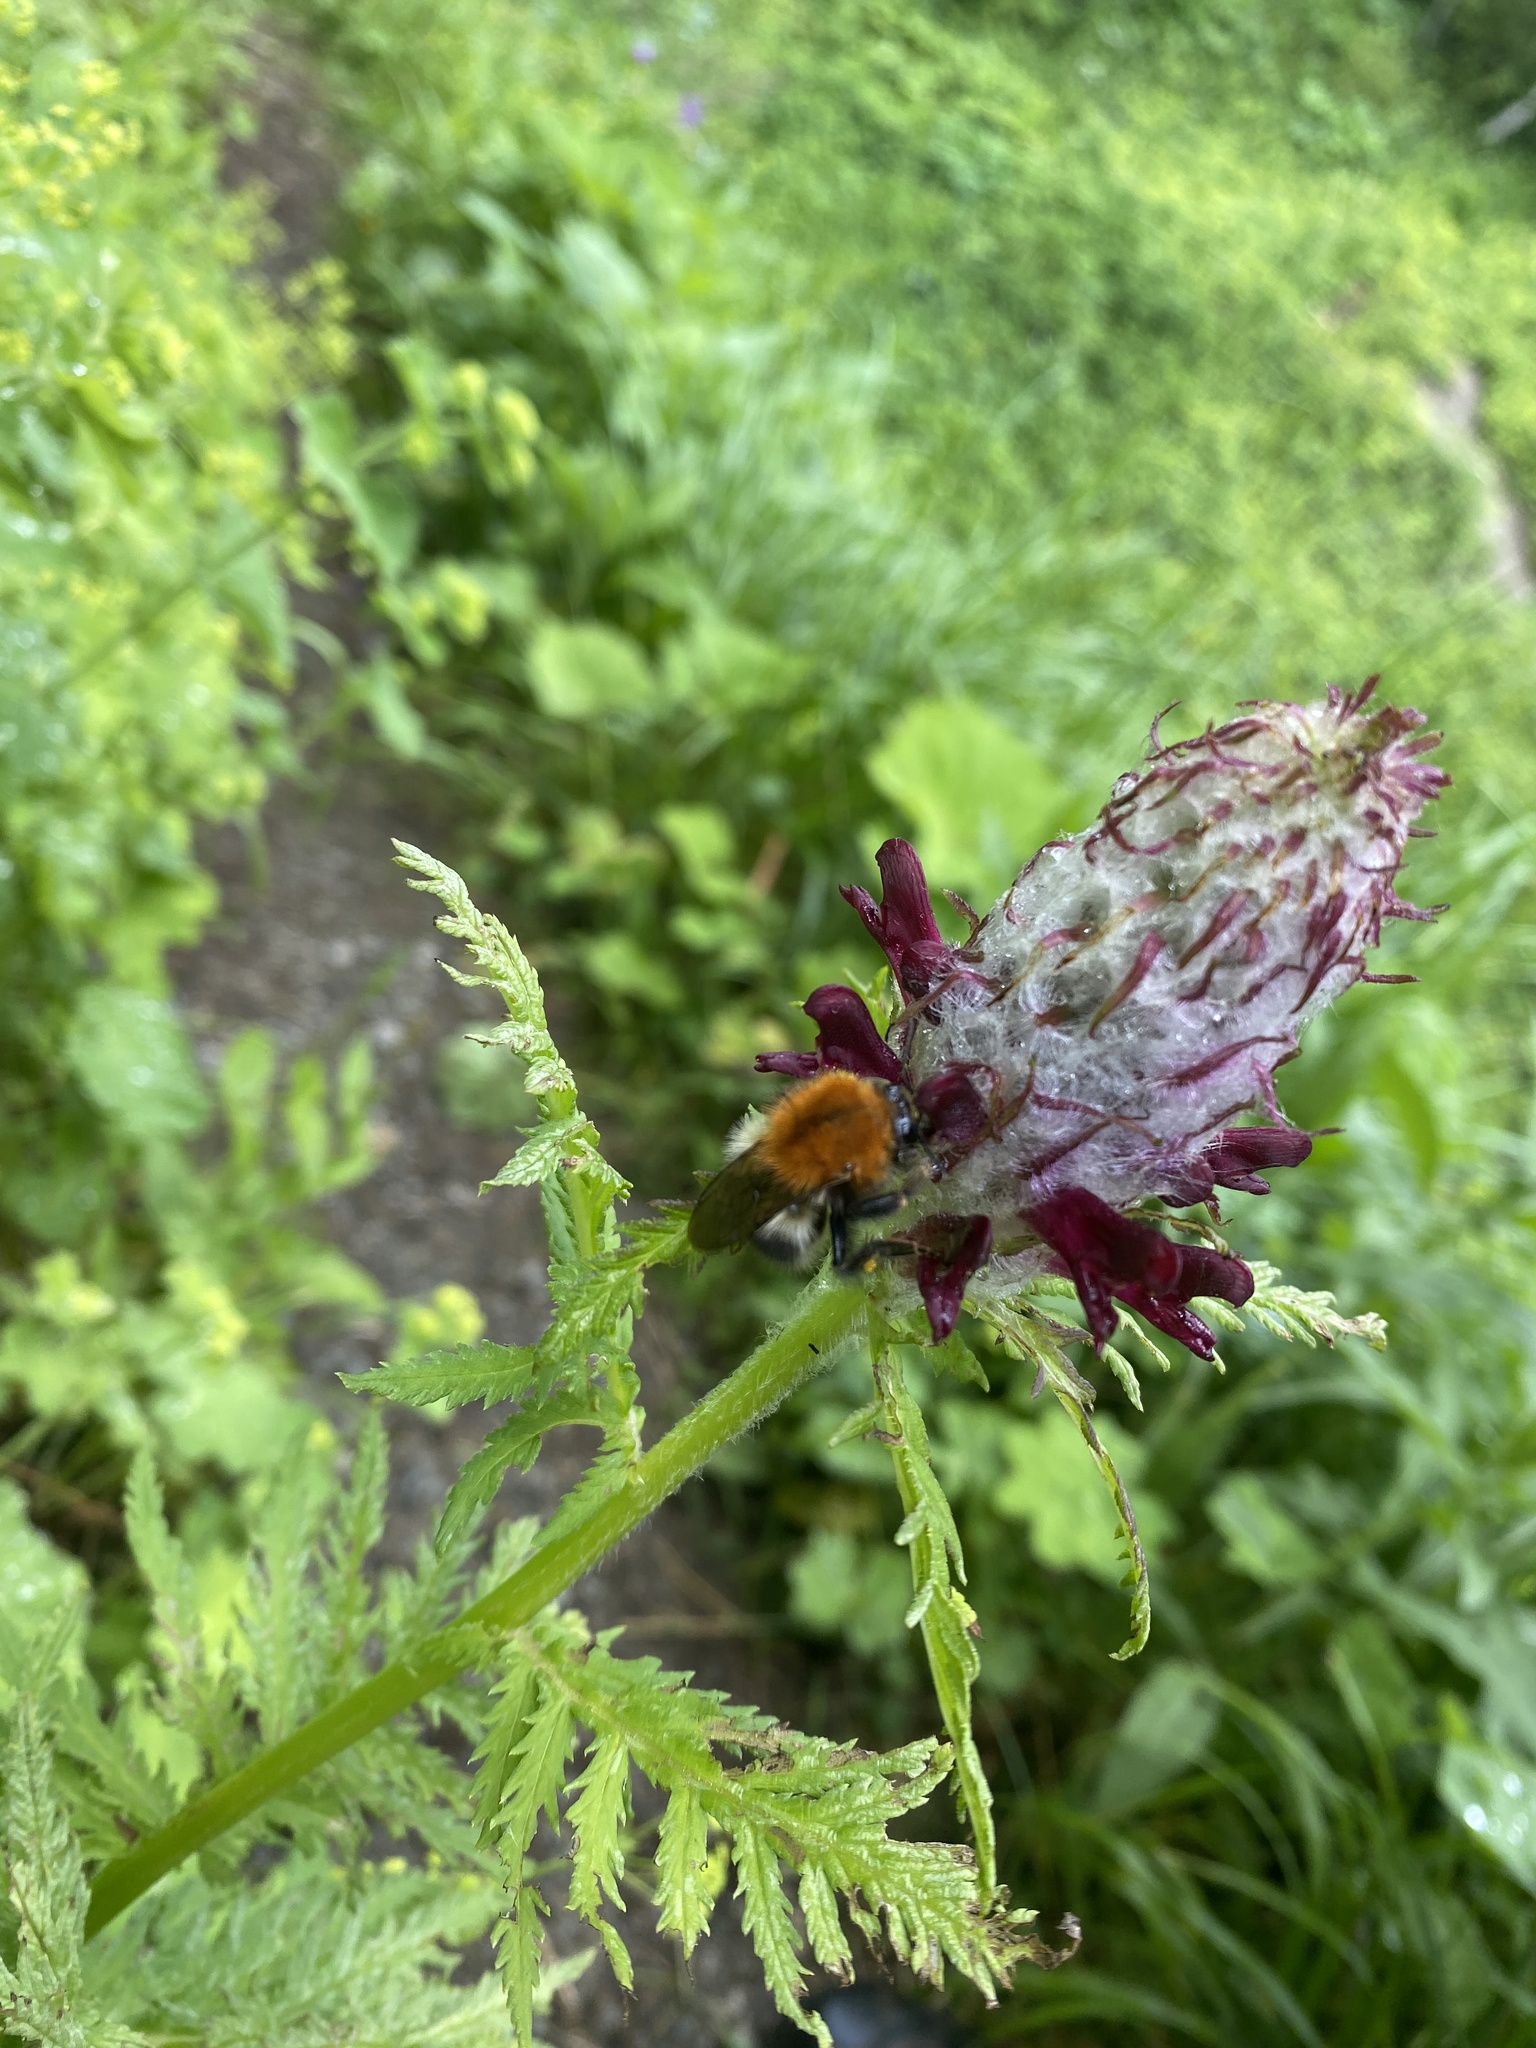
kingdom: Plantae
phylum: Tracheophyta
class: Magnoliopsida
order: Lamiales
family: Orobanchaceae
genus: Pedicularis
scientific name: Pedicularis atropurpurea
